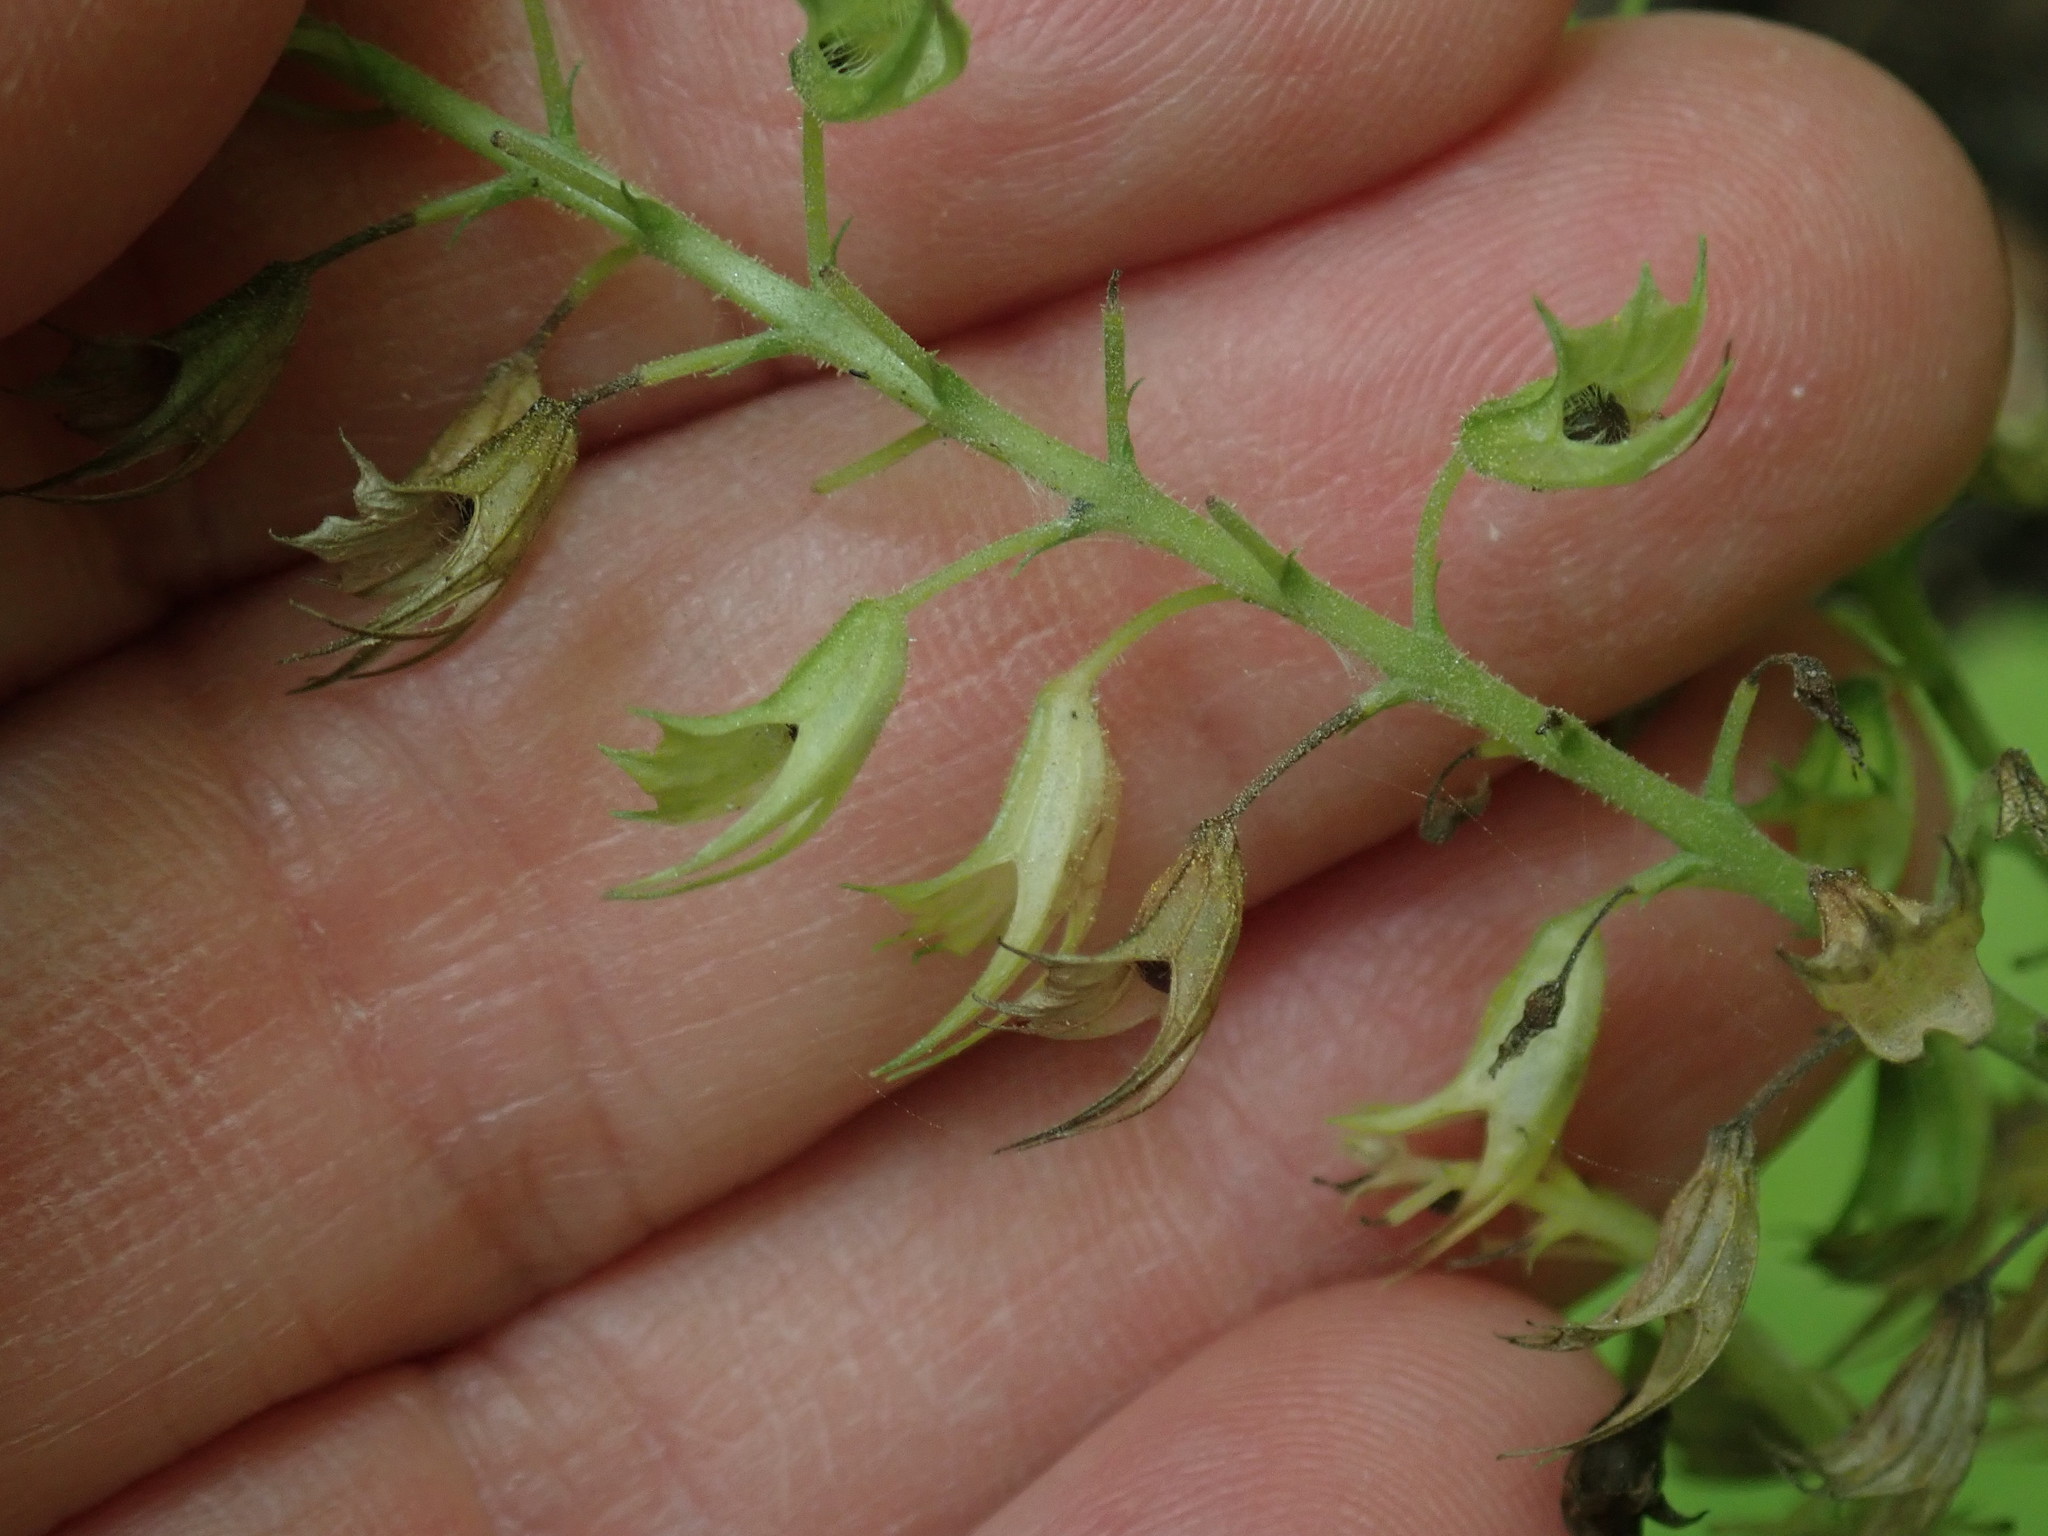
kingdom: Plantae
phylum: Tracheophyta
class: Magnoliopsida
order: Lamiales
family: Lamiaceae
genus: Collinsonia
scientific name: Collinsonia canadensis
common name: Northern horsebalm
